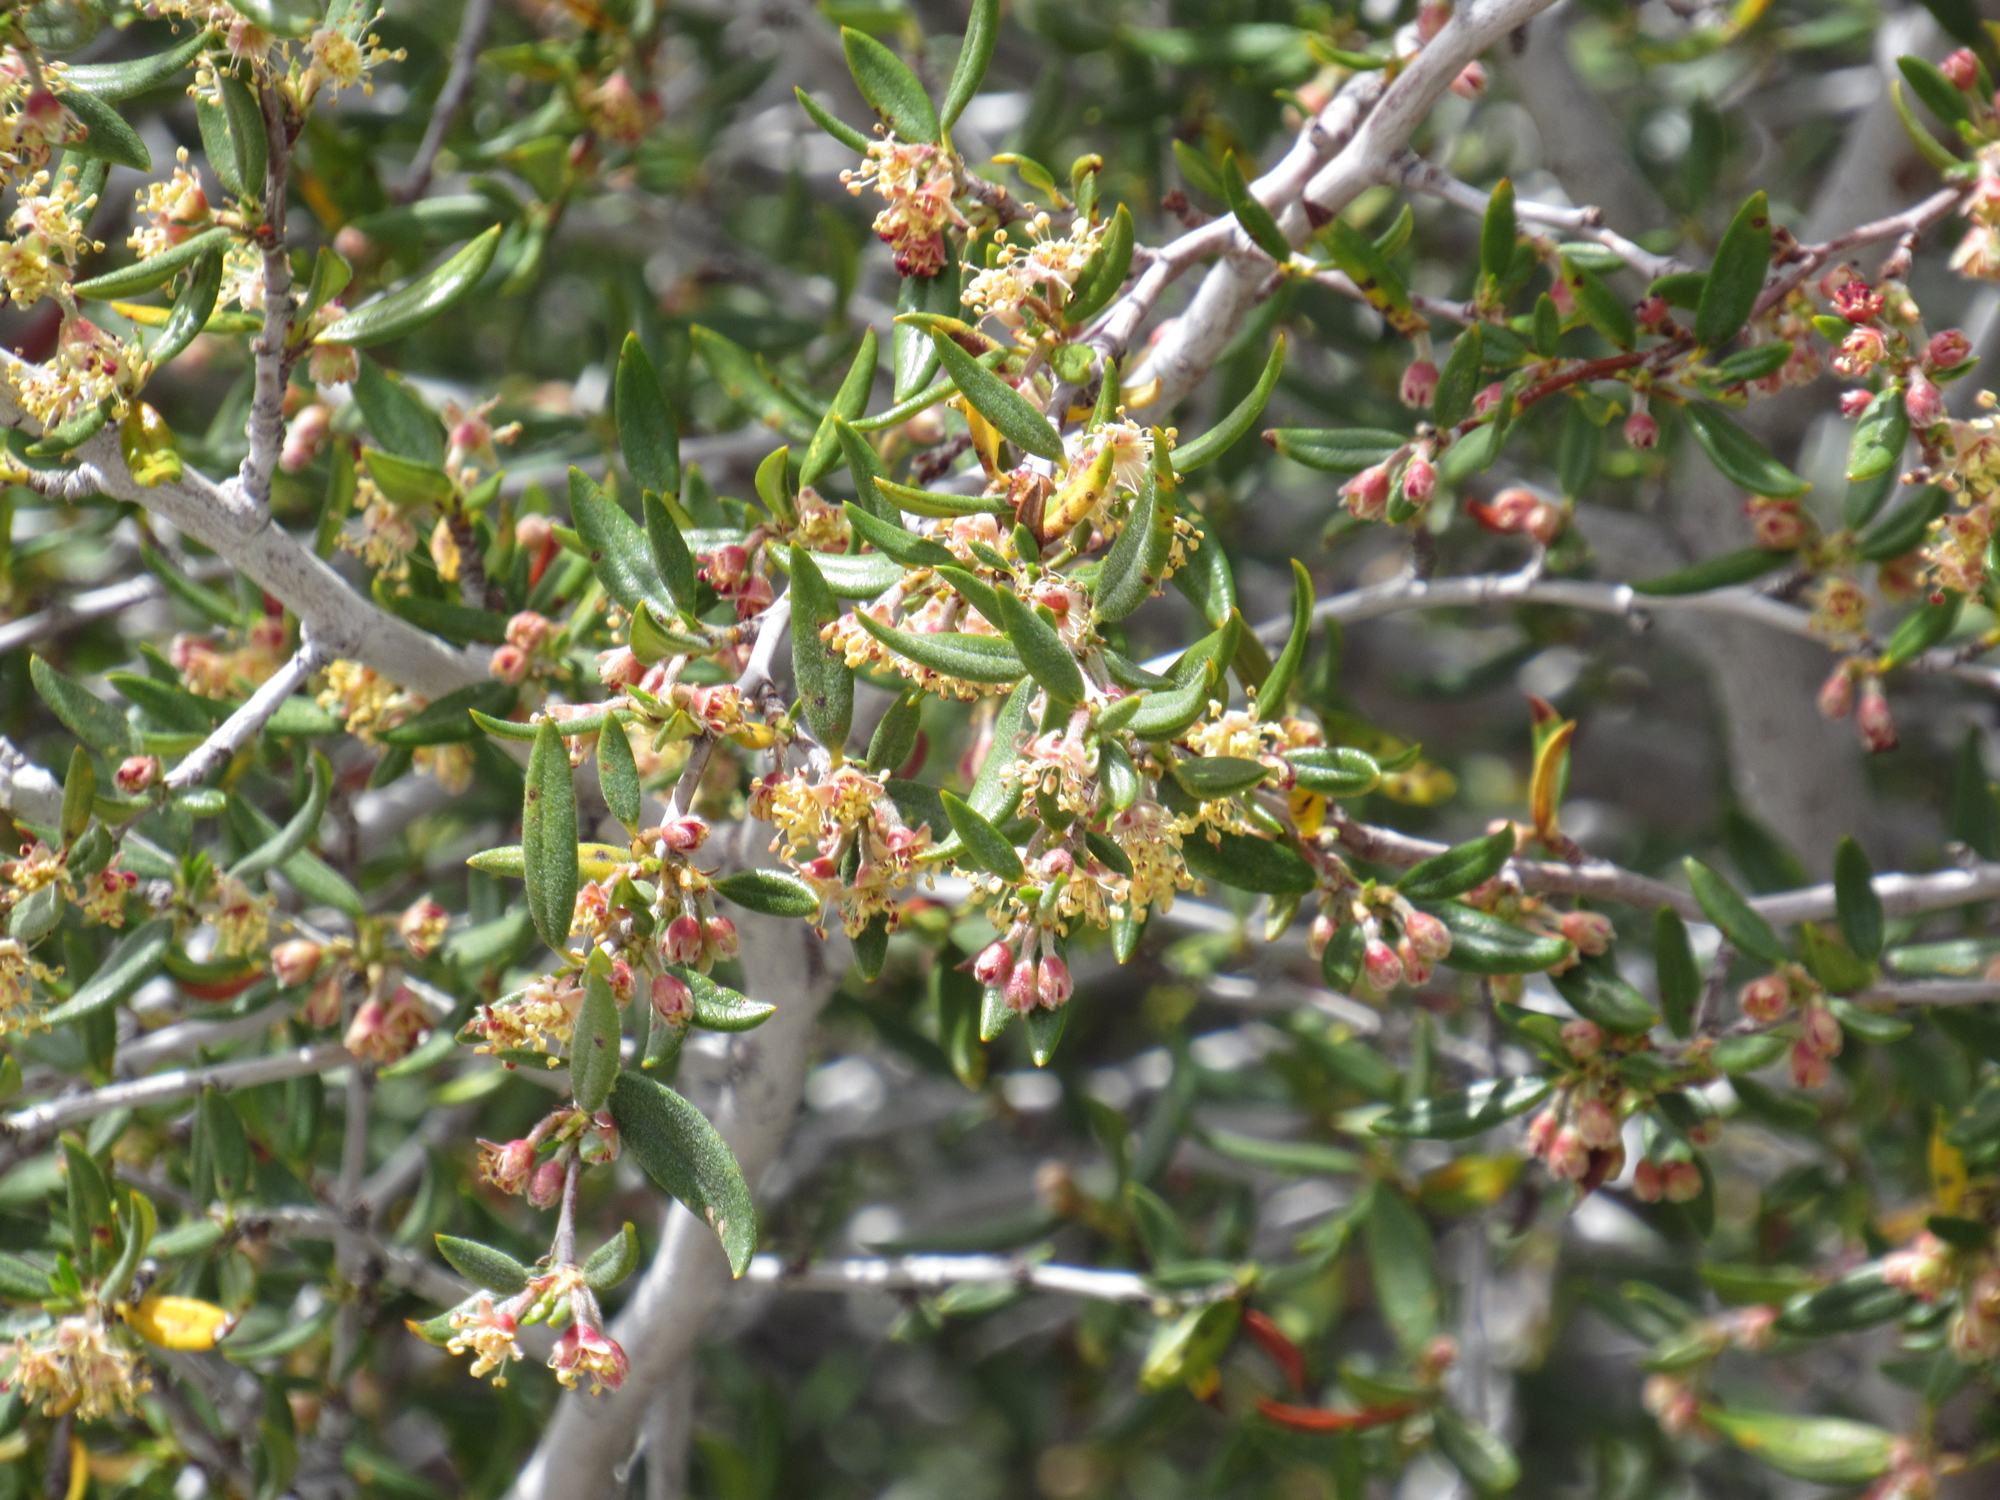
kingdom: Plantae
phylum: Tracheophyta
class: Magnoliopsida
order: Rosales
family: Rosaceae
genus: Cercocarpus
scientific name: Cercocarpus ledifolius
